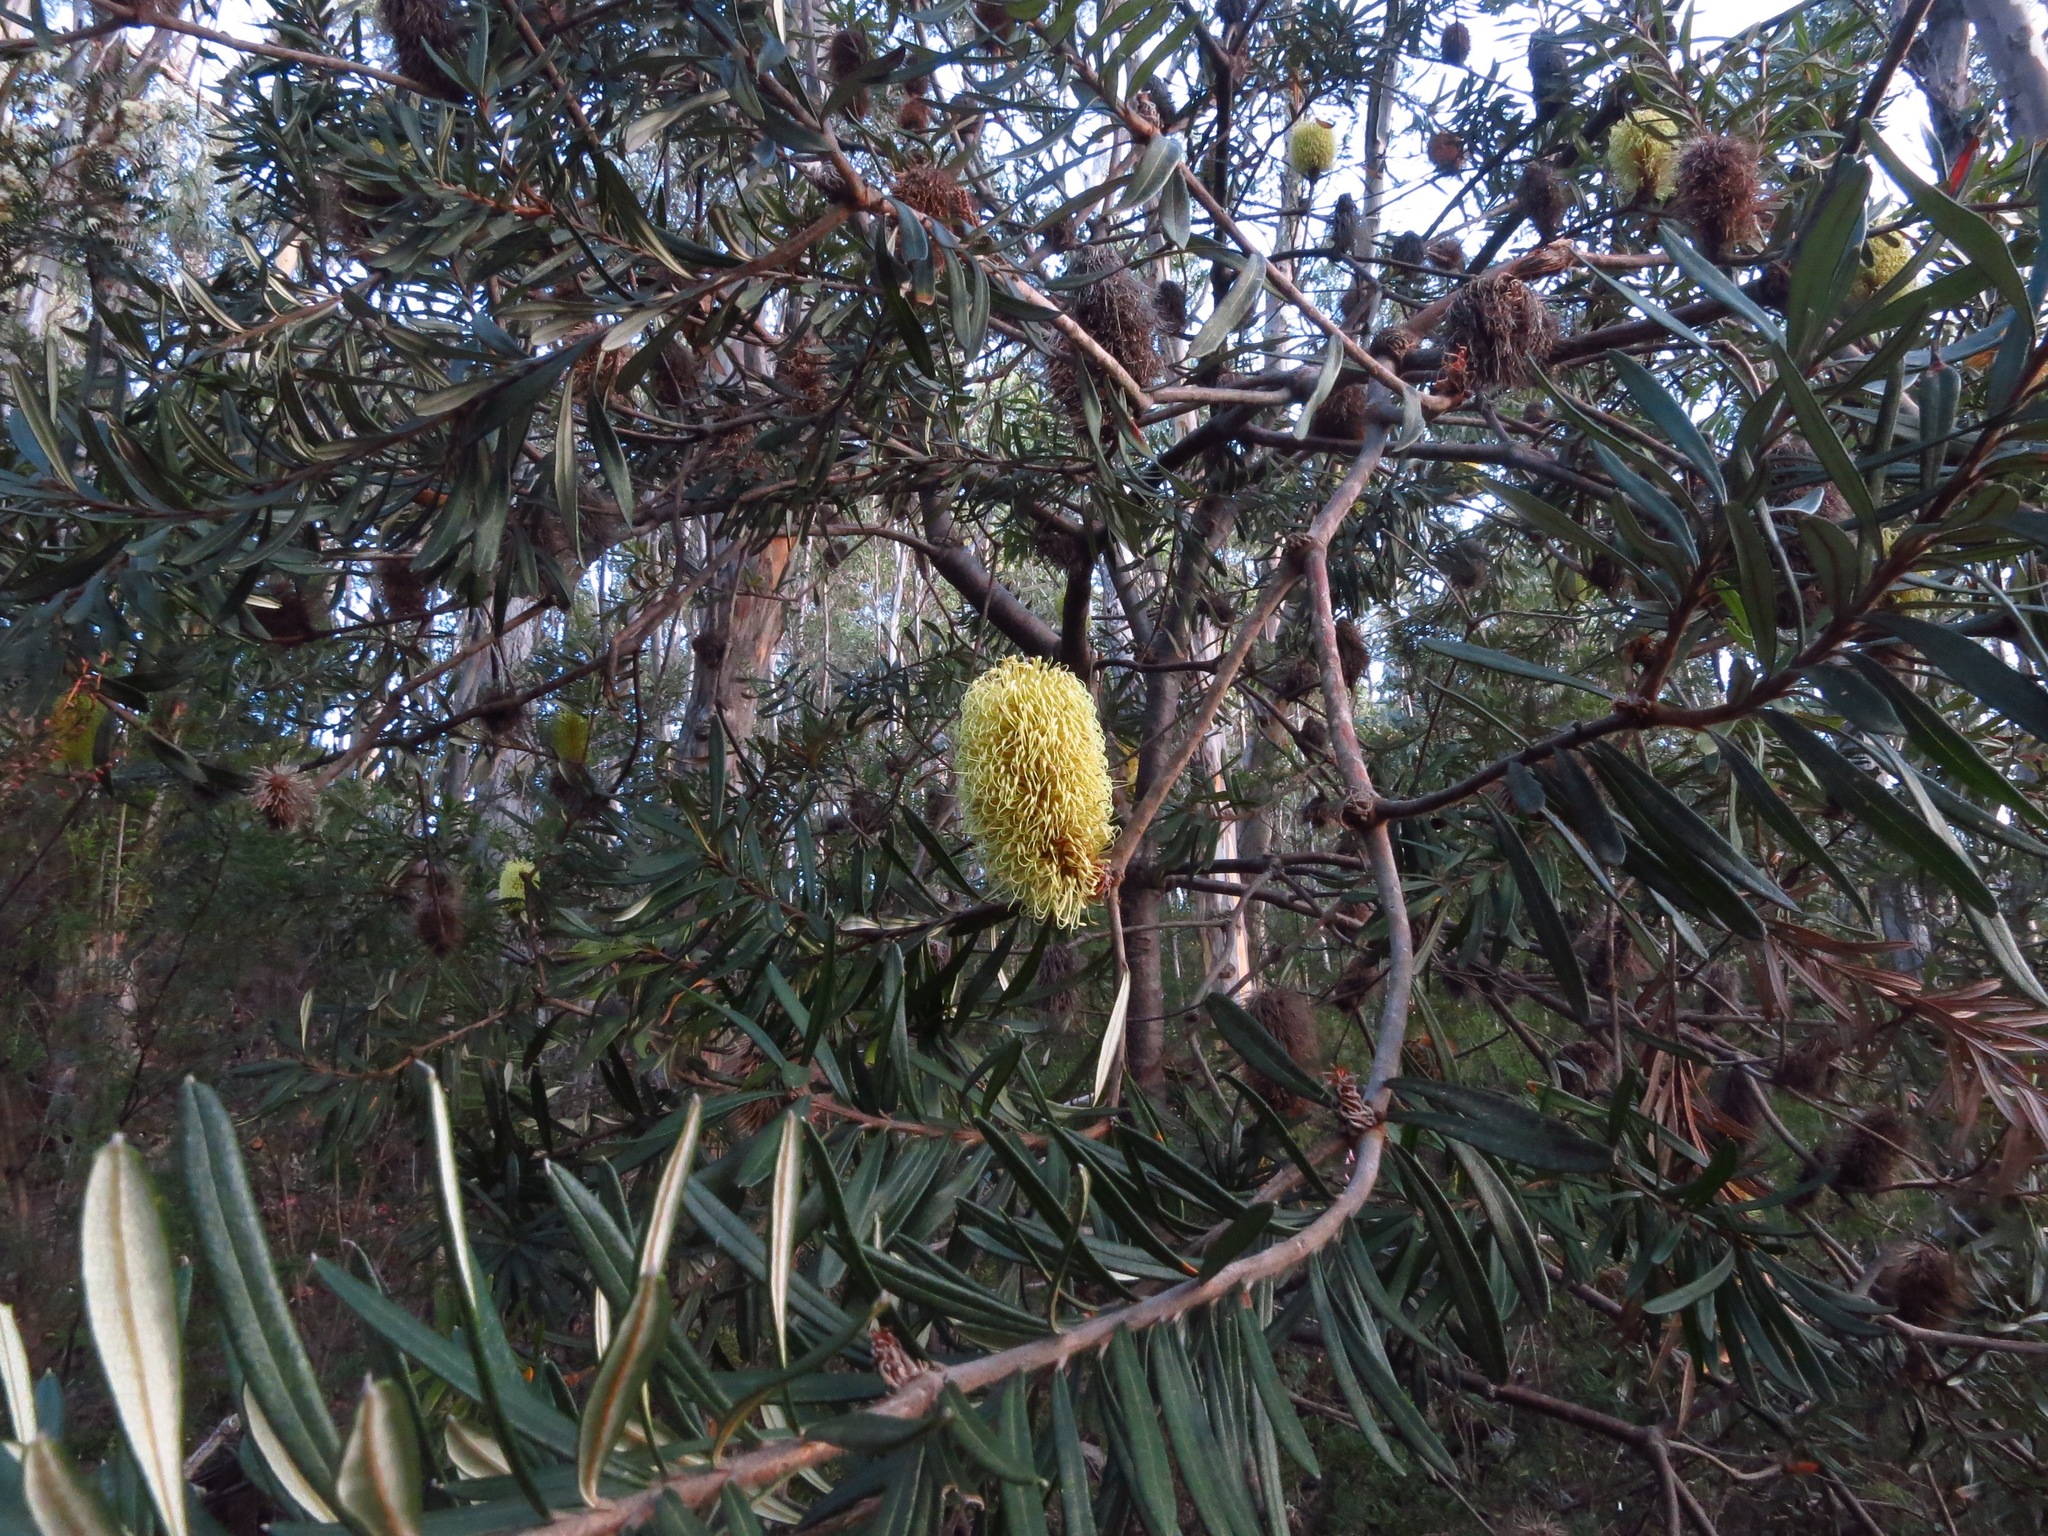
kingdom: Plantae
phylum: Tracheophyta
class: Magnoliopsida
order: Proteales
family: Proteaceae
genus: Banksia
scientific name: Banksia marginata
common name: Silver banksia
